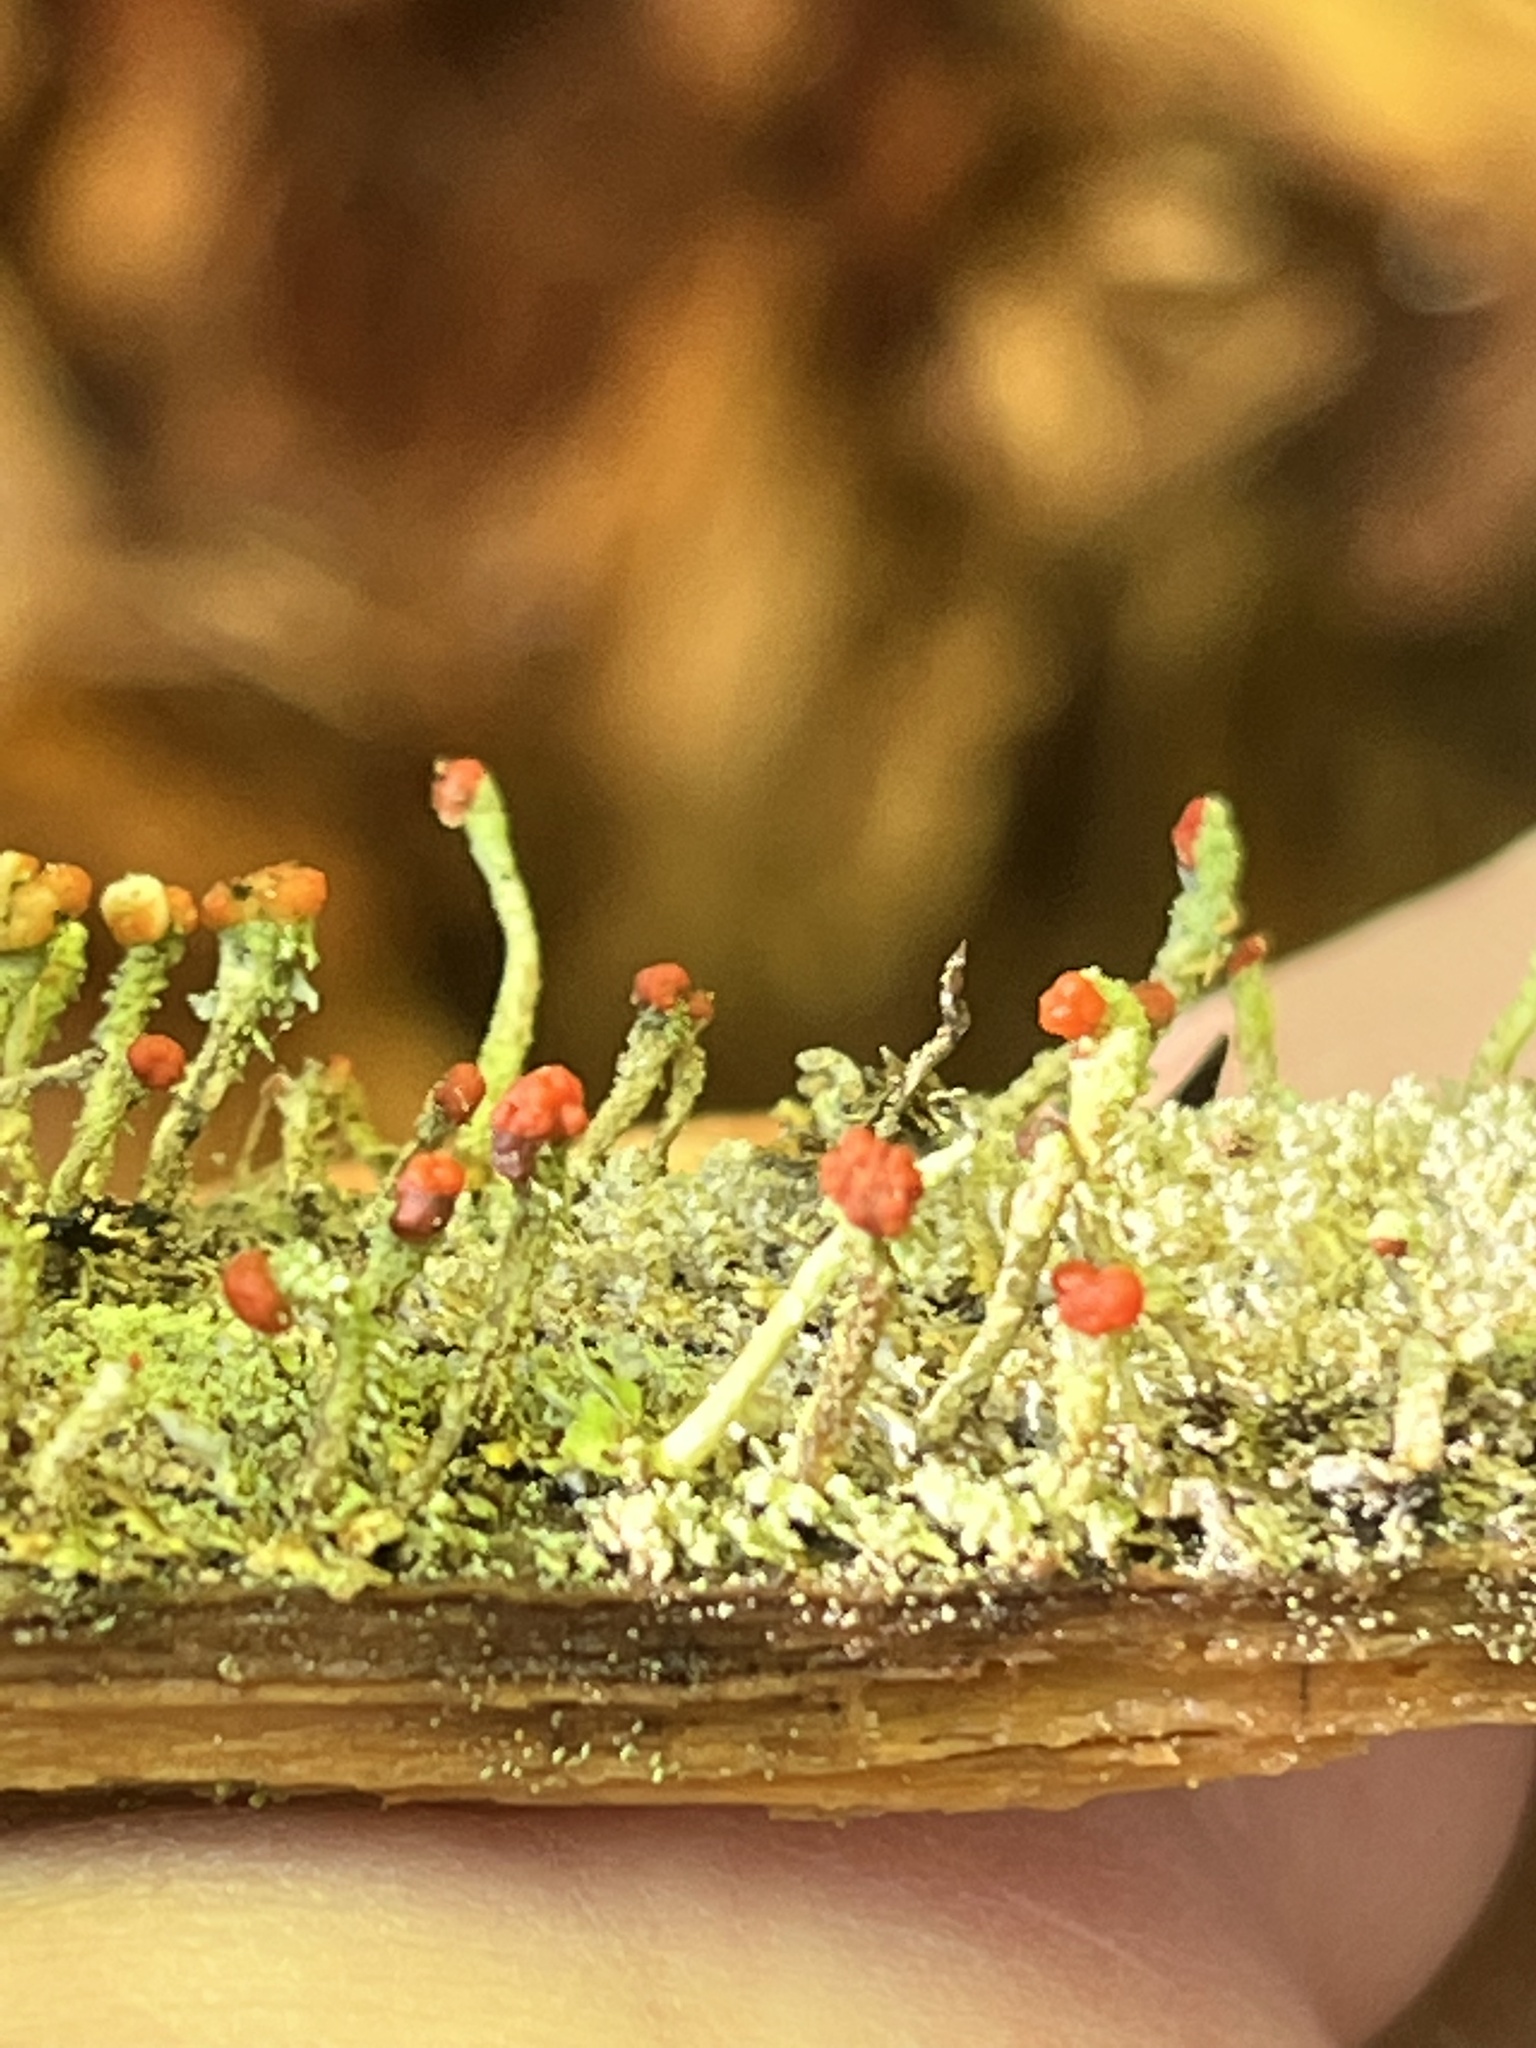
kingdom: Fungi
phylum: Ascomycota
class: Lecanoromycetes
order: Lecanorales
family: Cladoniaceae
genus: Cladonia
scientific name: Cladonia macilenta
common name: Lipstick powderhorn
